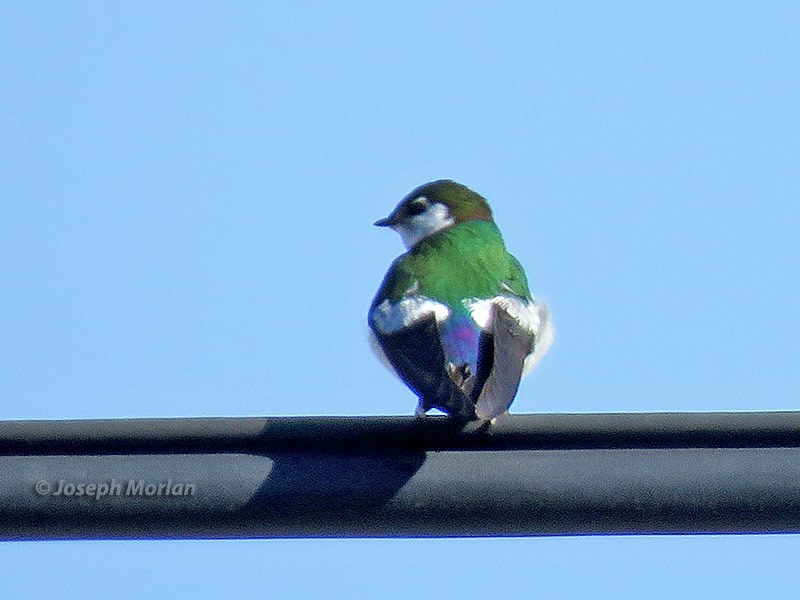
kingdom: Animalia
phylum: Chordata
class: Aves
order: Passeriformes
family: Hirundinidae
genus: Tachycineta
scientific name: Tachycineta thalassina
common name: Violet-green swallow
